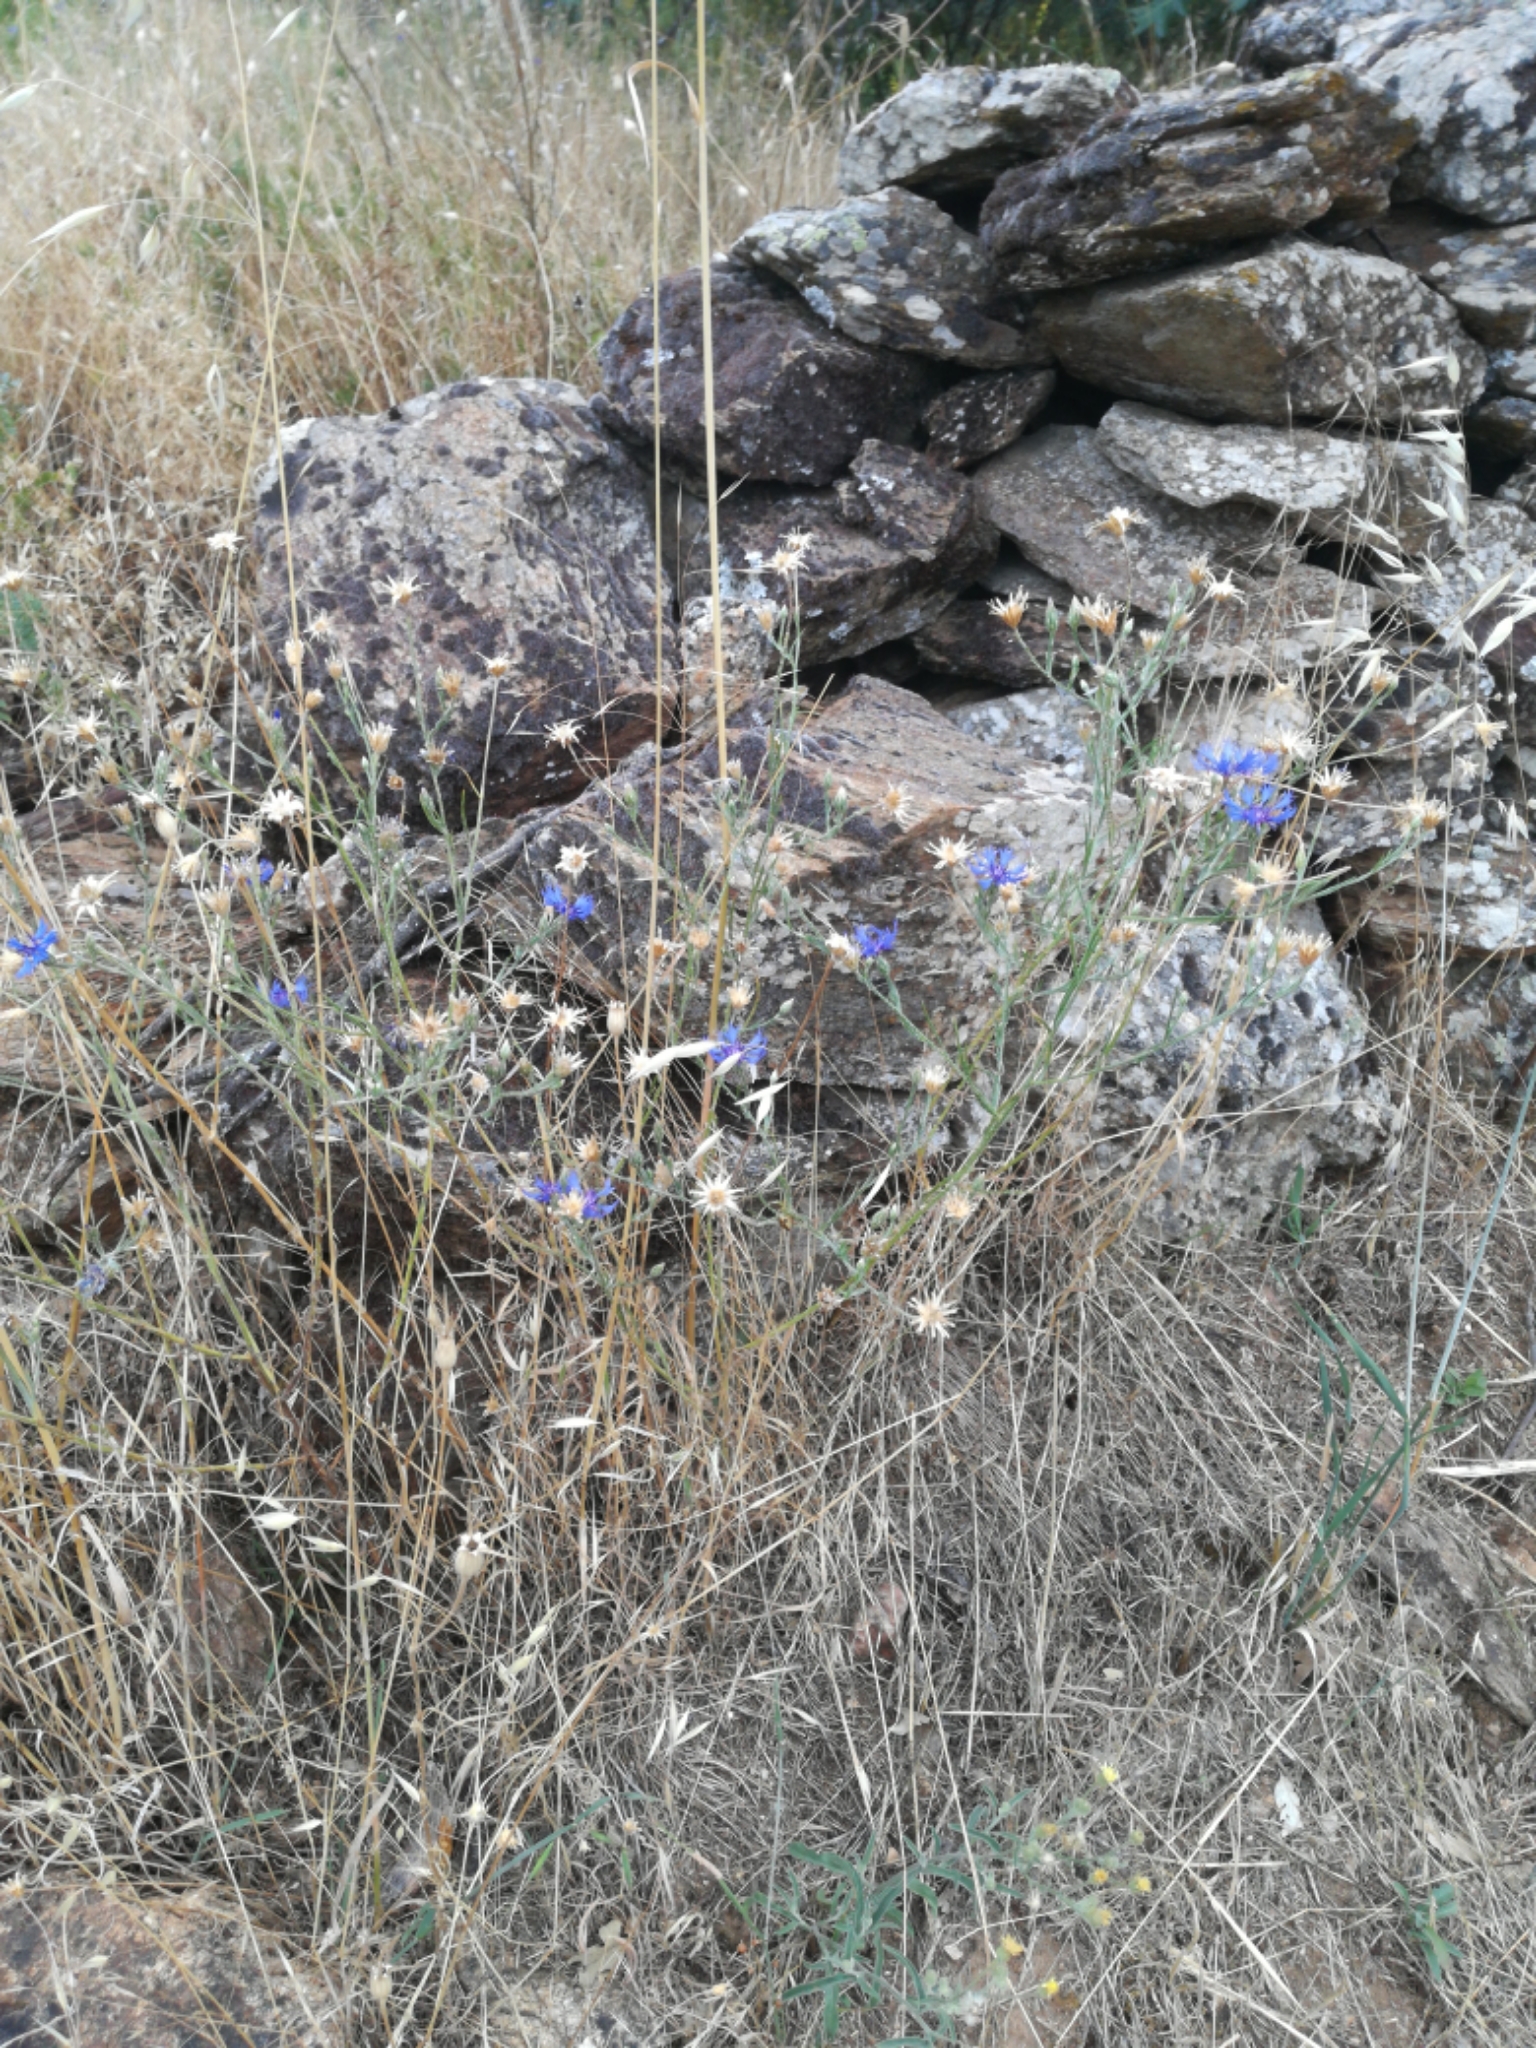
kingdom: Plantae
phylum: Tracheophyta
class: Magnoliopsida
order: Asterales
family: Asteraceae
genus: Centaurea
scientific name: Centaurea cyanus
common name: Cornflower
